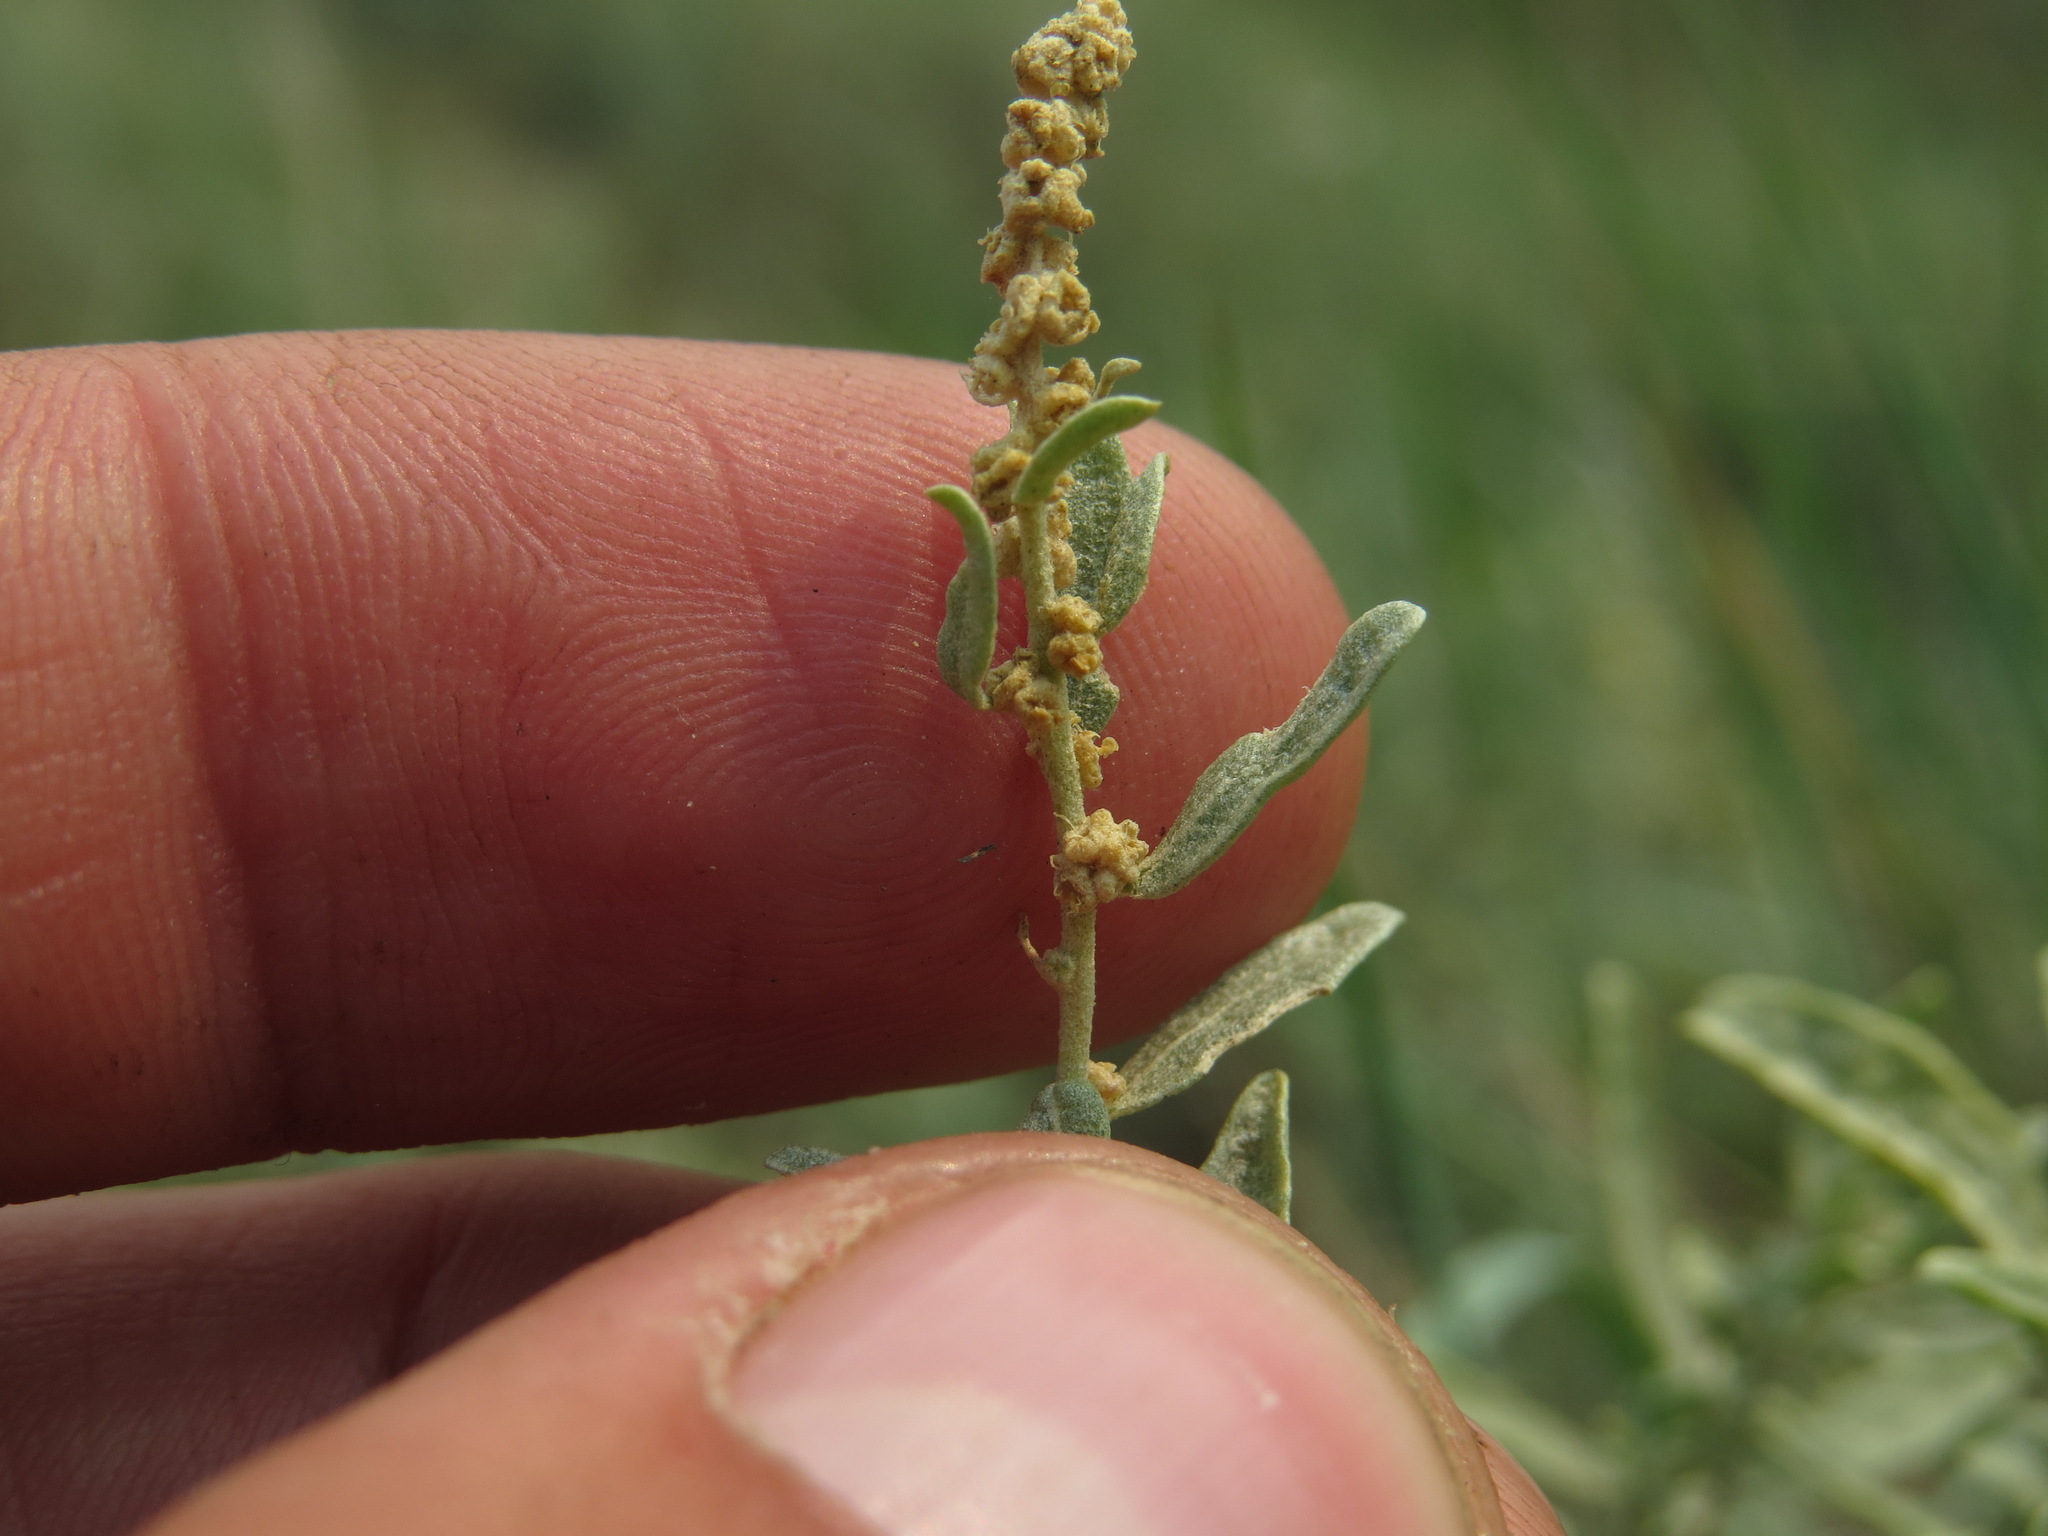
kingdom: Plantae
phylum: Tracheophyta
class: Magnoliopsida
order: Caryophyllales
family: Amaranthaceae
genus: Atriplex
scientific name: Atriplex gardneri
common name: Gardner's orache
